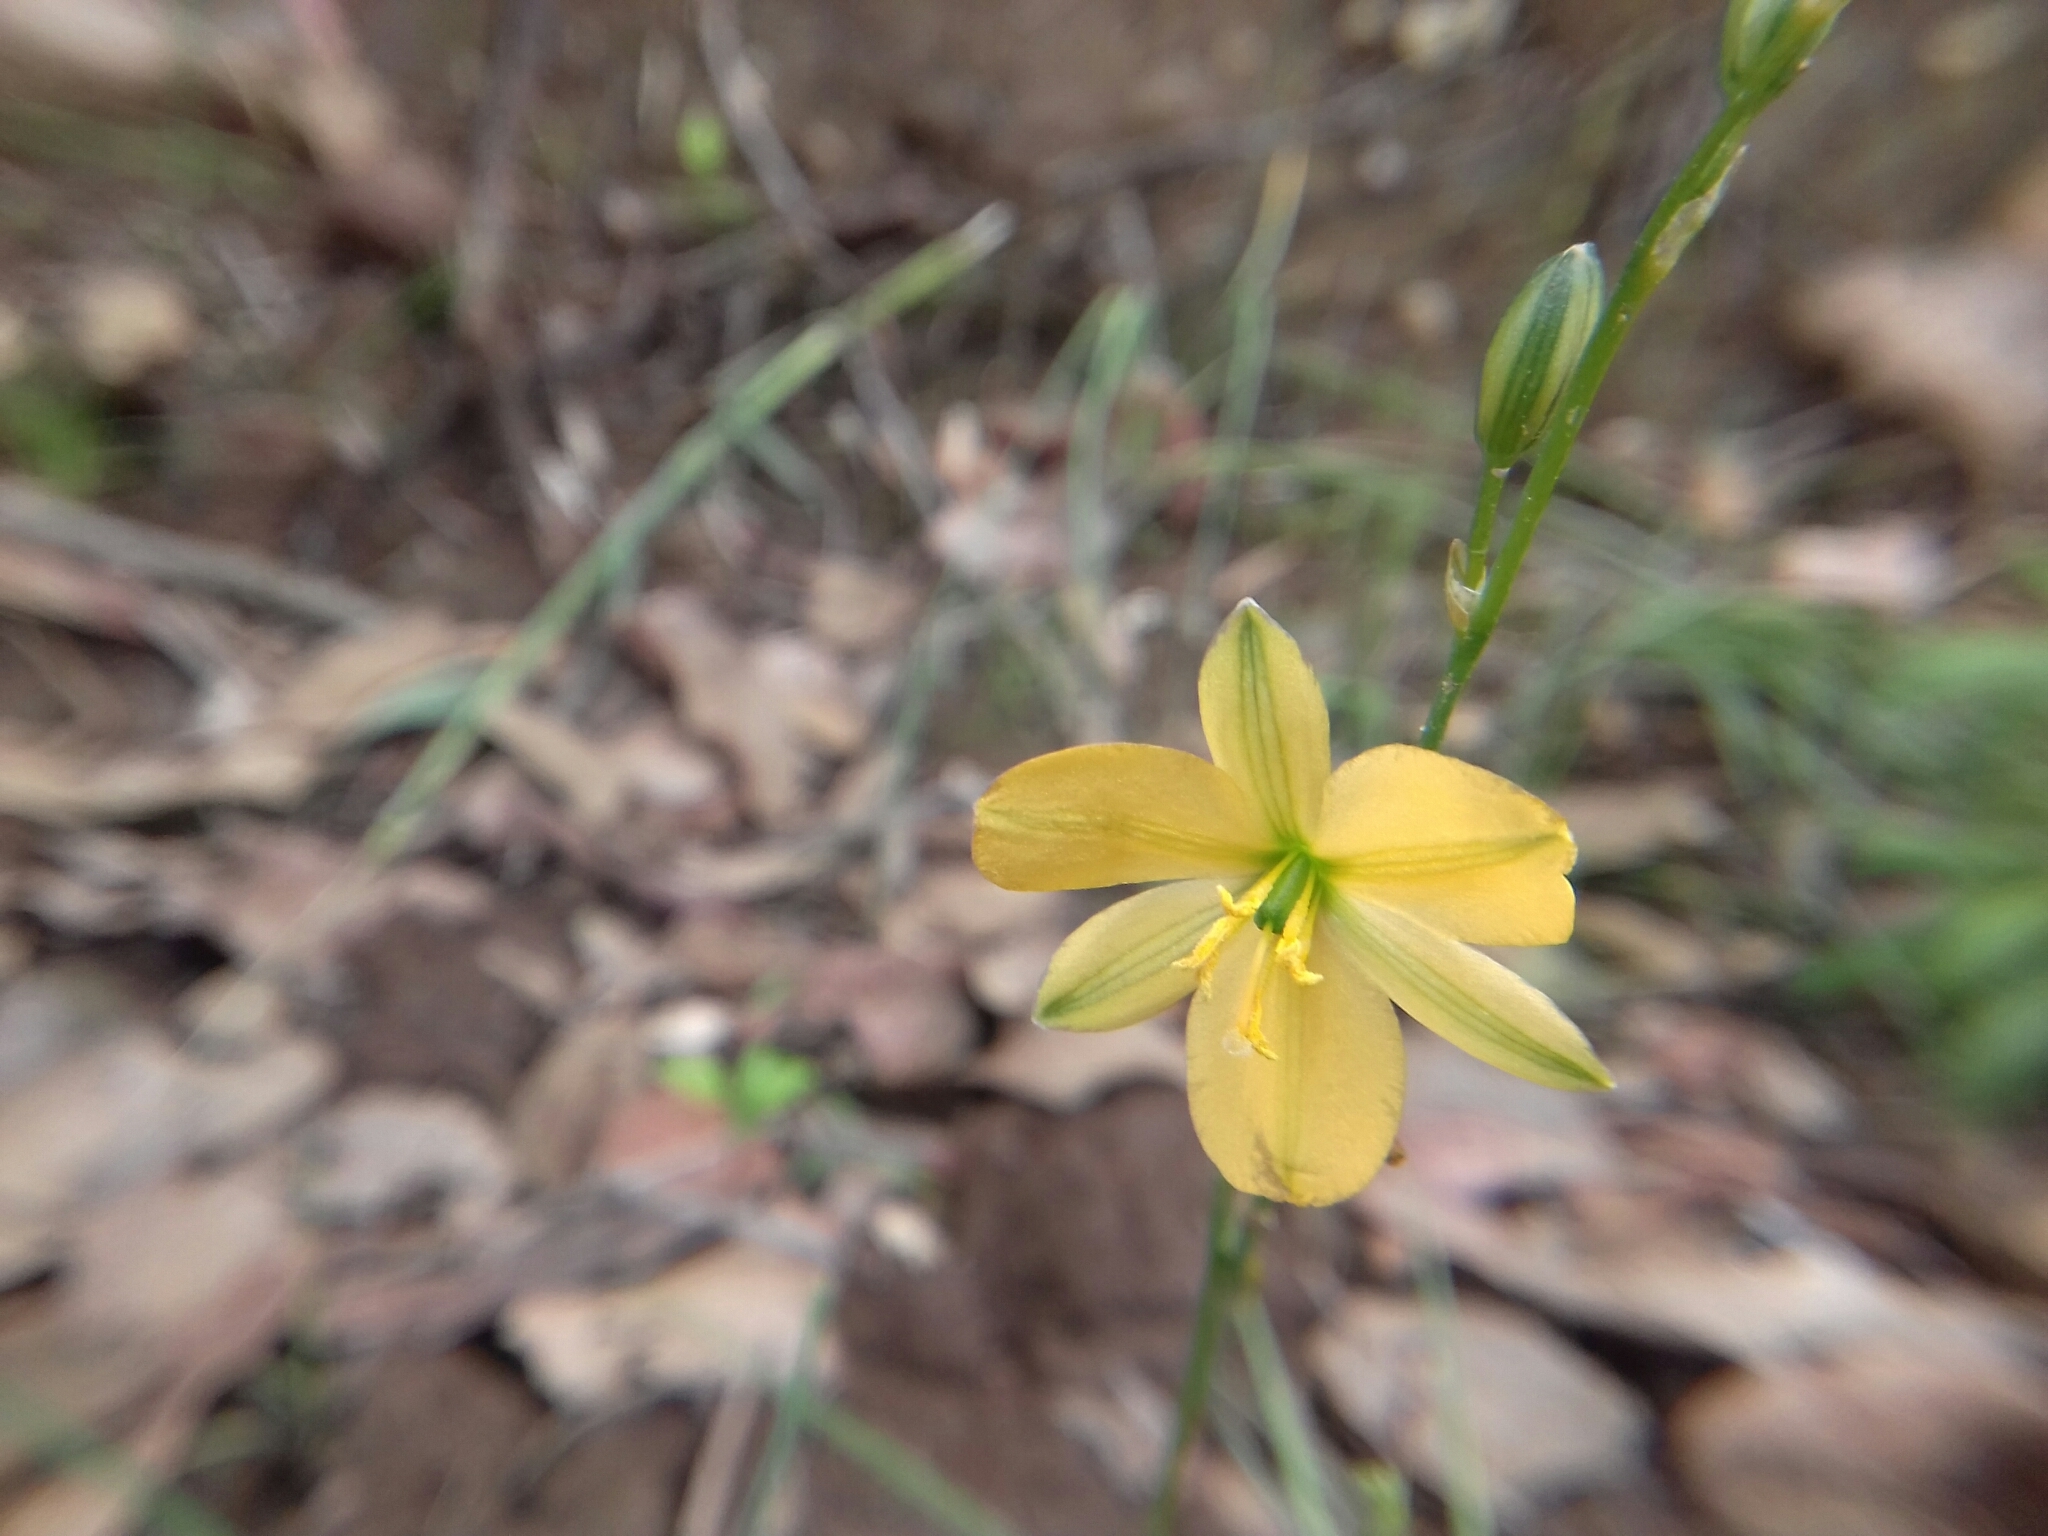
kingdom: Plantae
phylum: Tracheophyta
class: Liliopsida
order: Asparagales
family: Asparagaceae
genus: Echeandia
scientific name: Echeandia flavescens
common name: Amberlily
